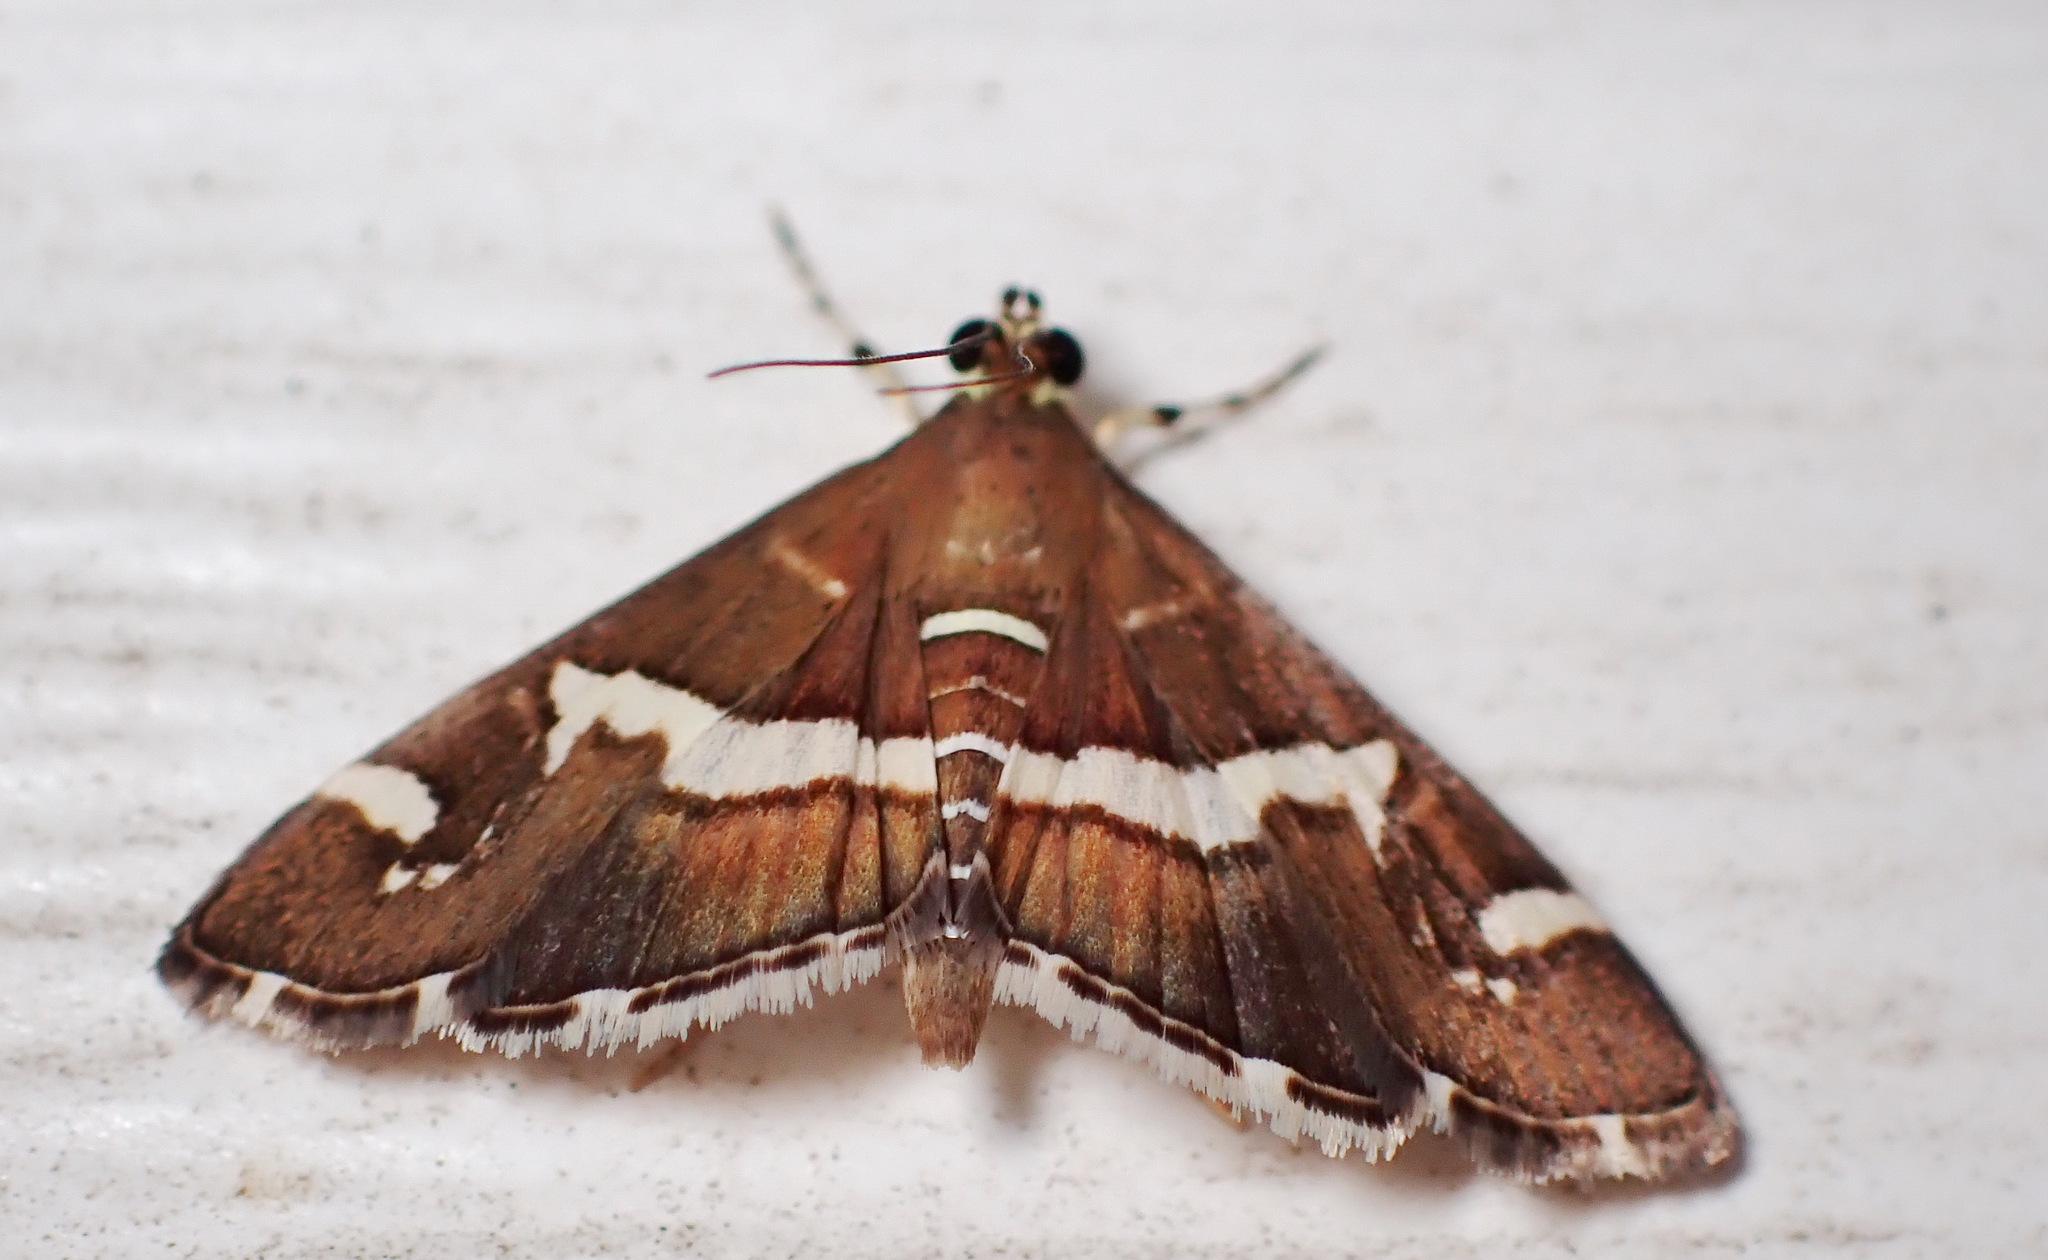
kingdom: Animalia
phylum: Arthropoda
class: Insecta
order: Lepidoptera
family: Crambidae
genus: Spoladea
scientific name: Spoladea recurvalis
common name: Beet webworm moth
